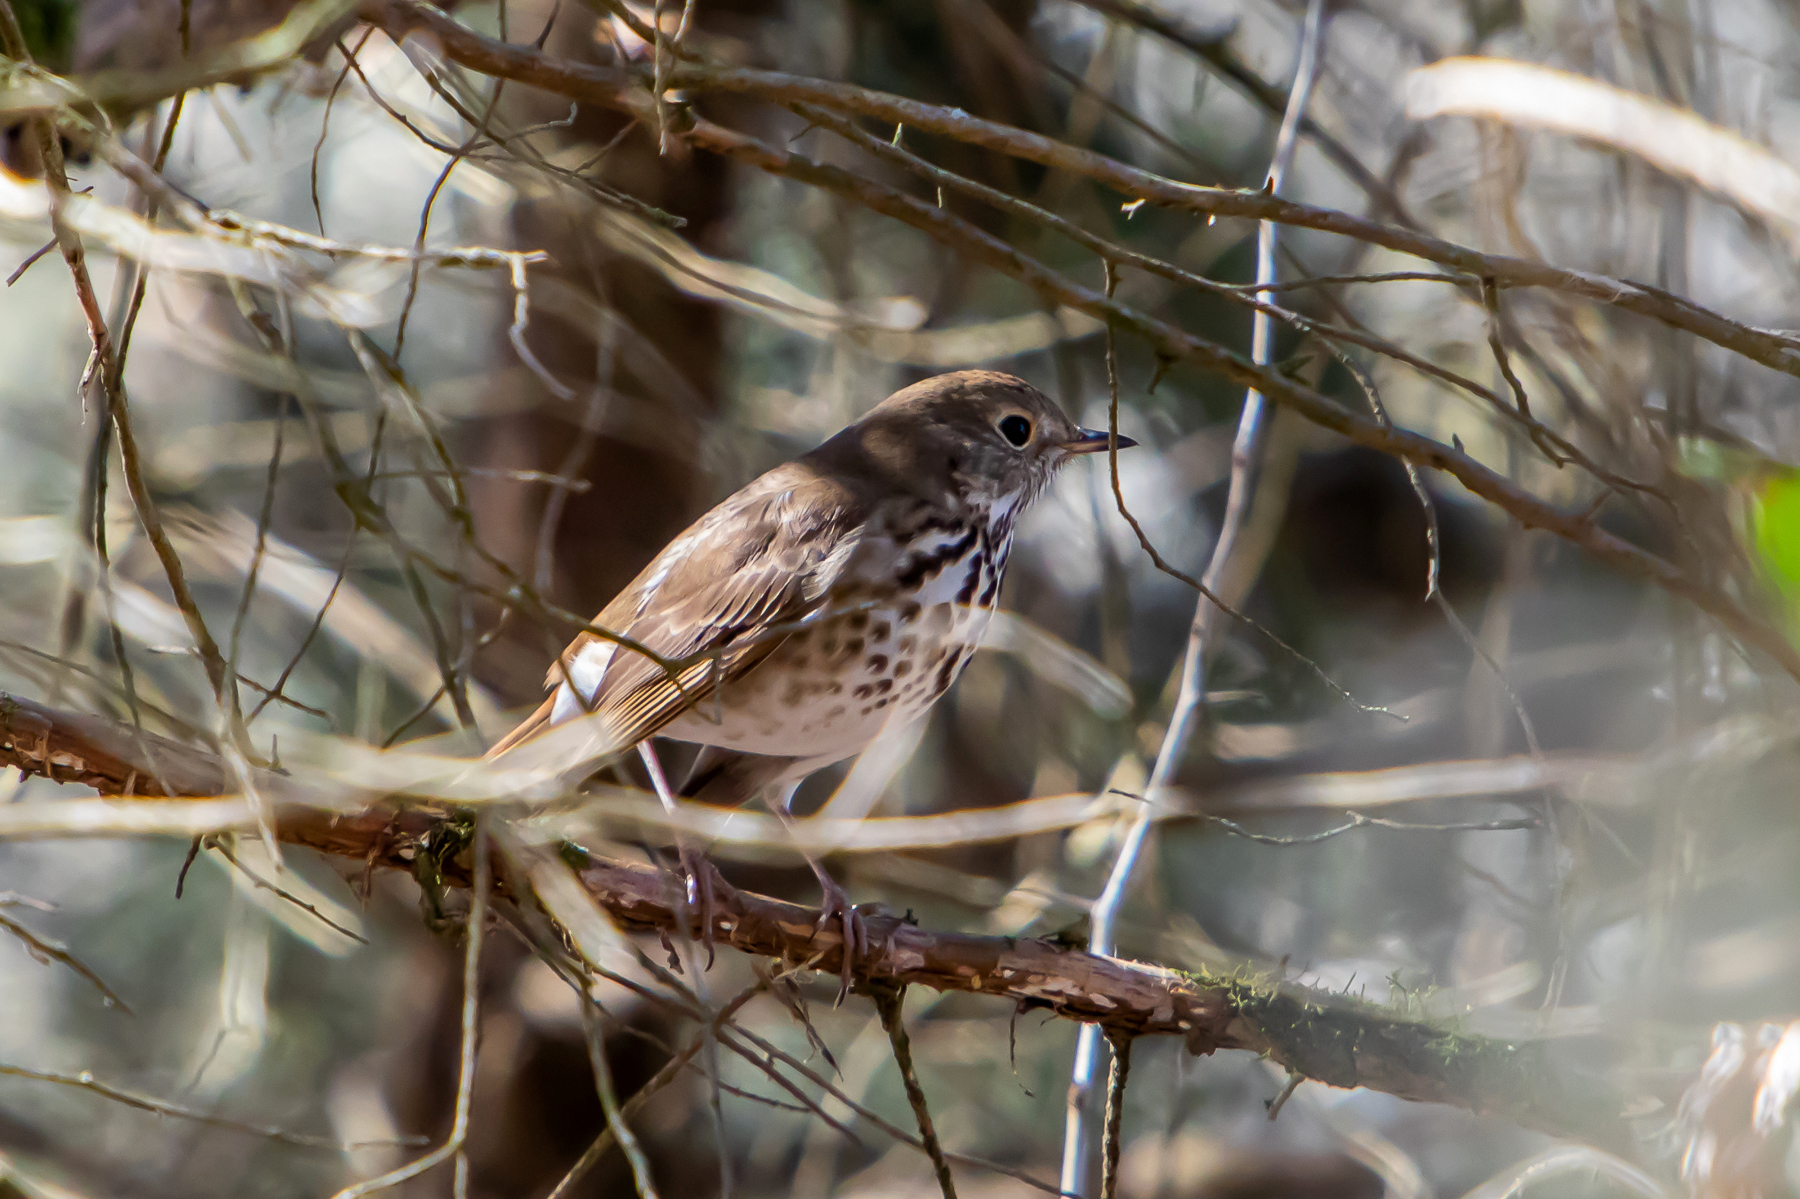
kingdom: Animalia
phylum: Chordata
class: Aves
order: Passeriformes
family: Turdidae
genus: Catharus
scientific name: Catharus guttatus
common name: Hermit thrush
